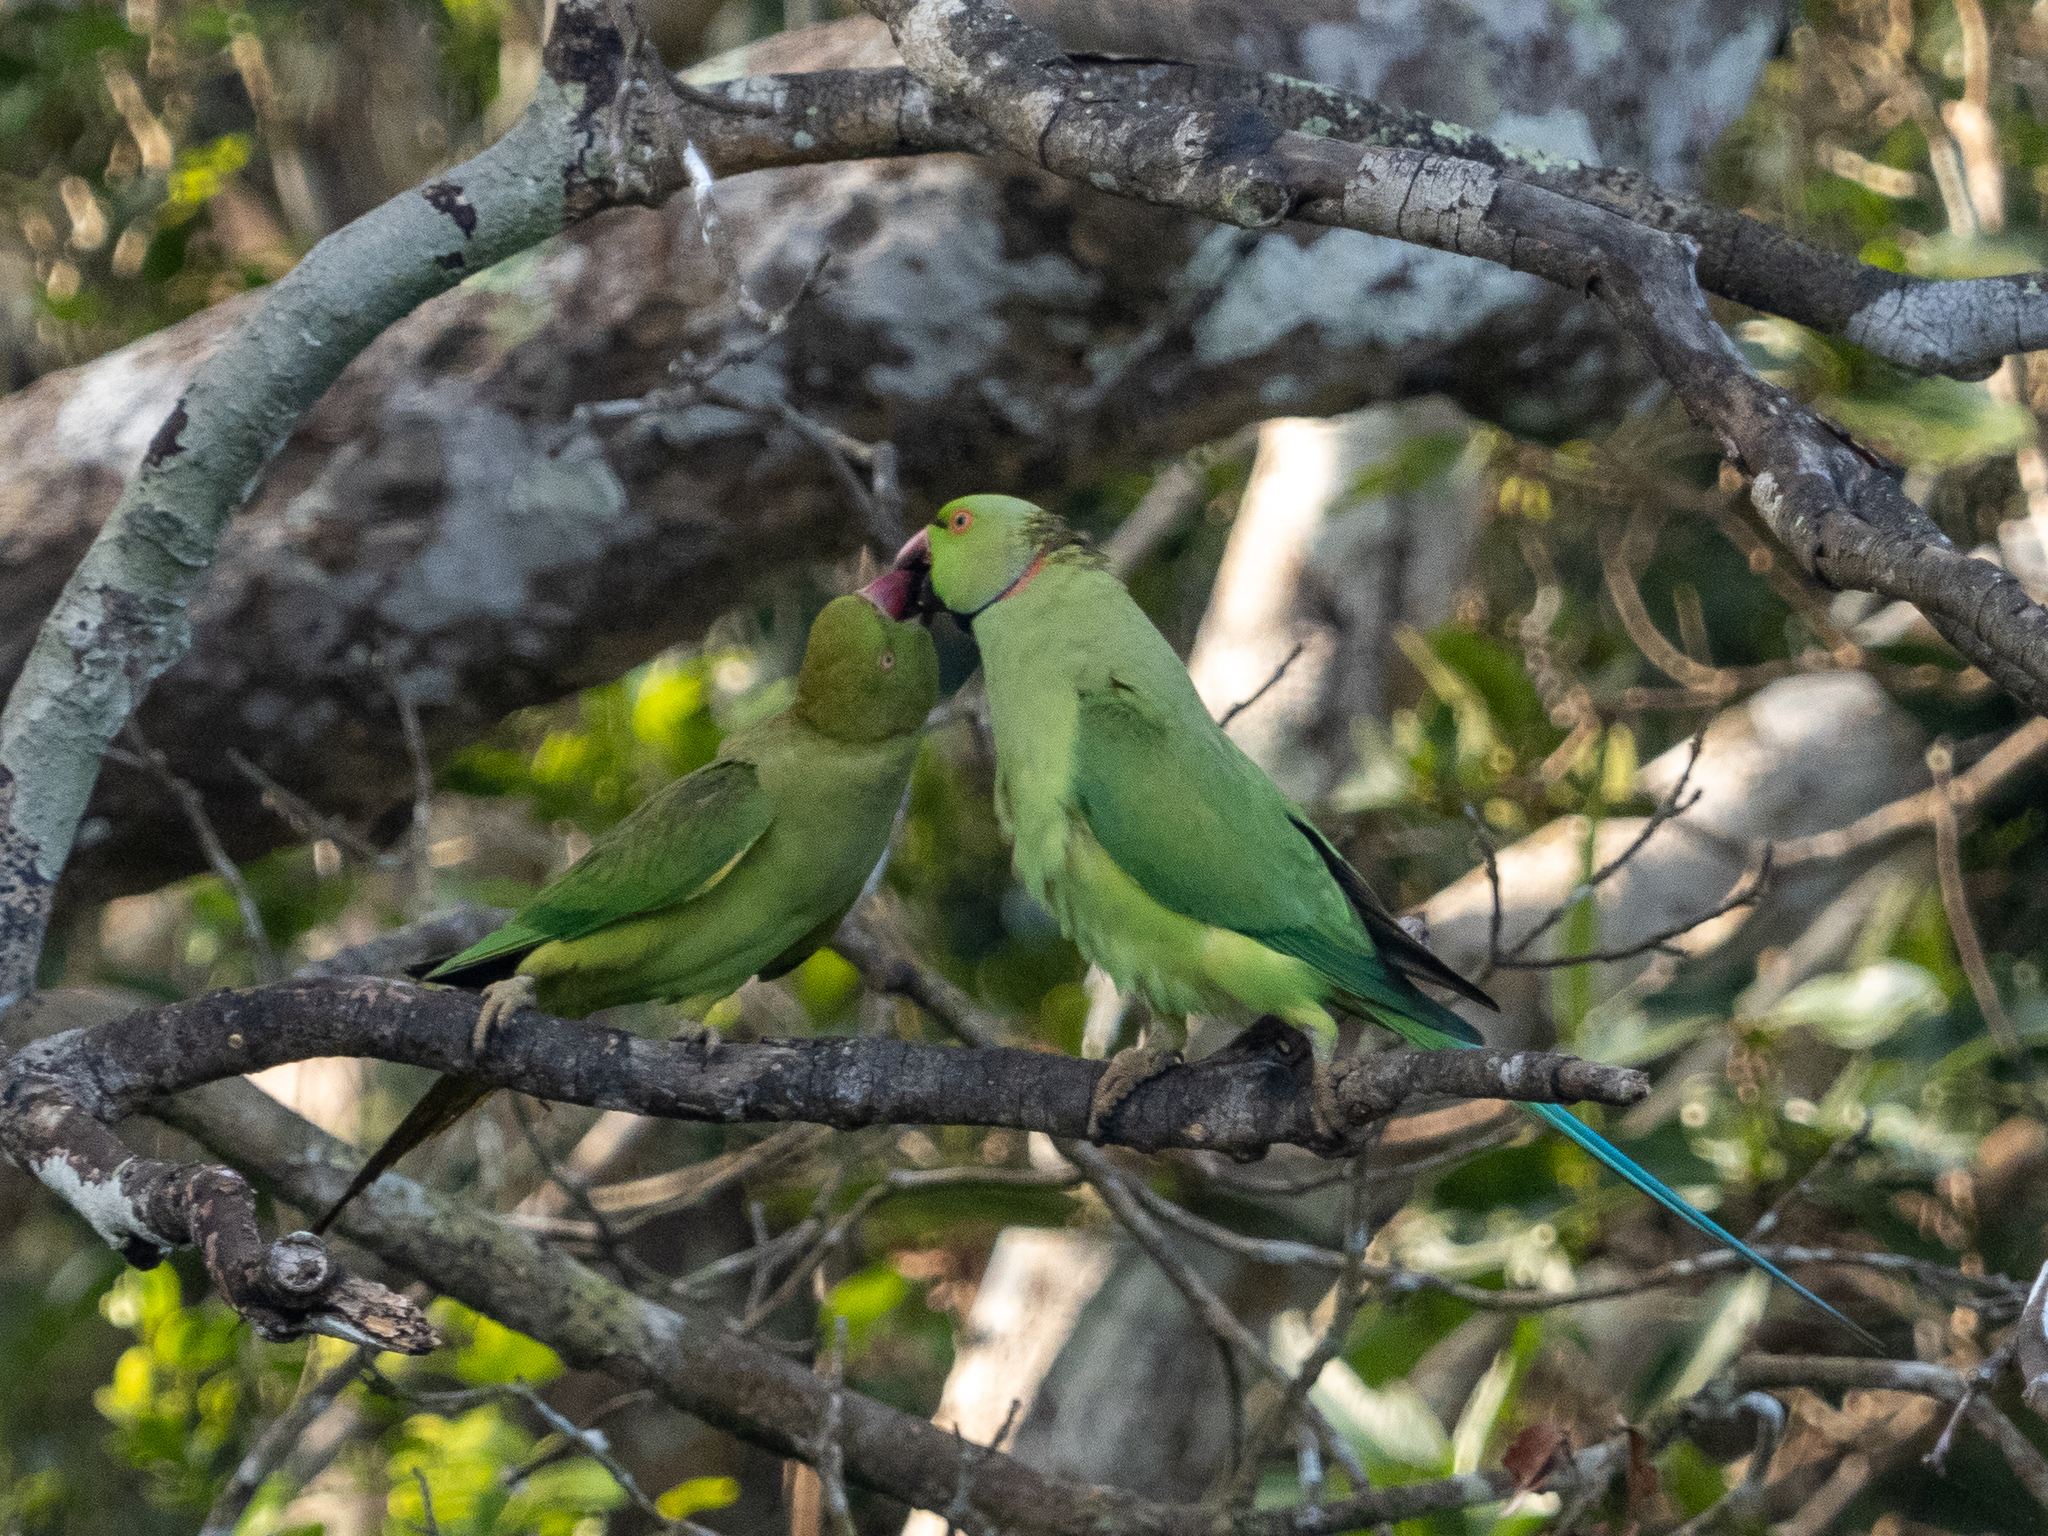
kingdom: Animalia
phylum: Chordata
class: Aves
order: Psittaciformes
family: Psittacidae
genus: Psittacula
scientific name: Psittacula krameri
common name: Rose-ringed parakeet
